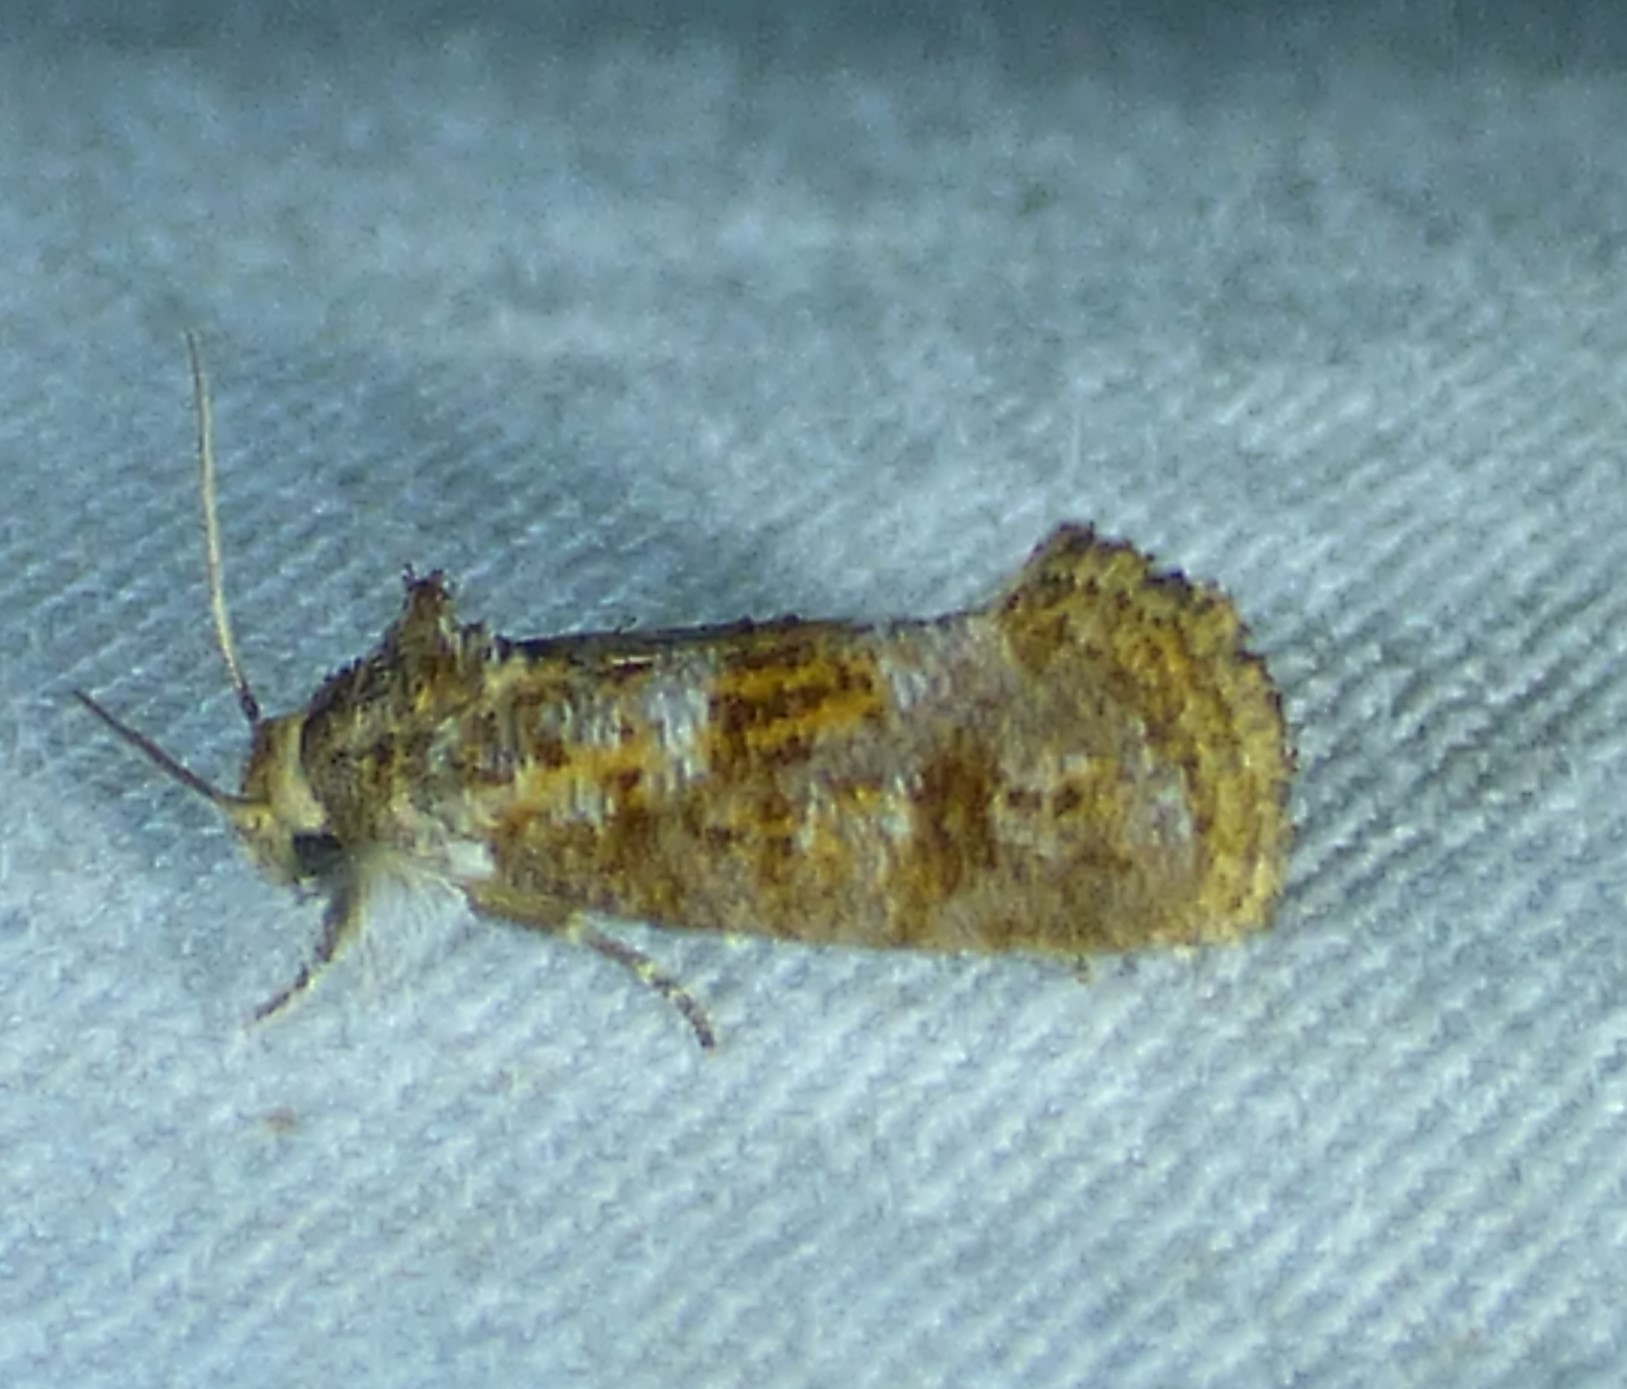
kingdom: Animalia
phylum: Arthropoda
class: Insecta
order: Lepidoptera
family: Tineidae
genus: Acrolophus
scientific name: Acrolophus panamae
